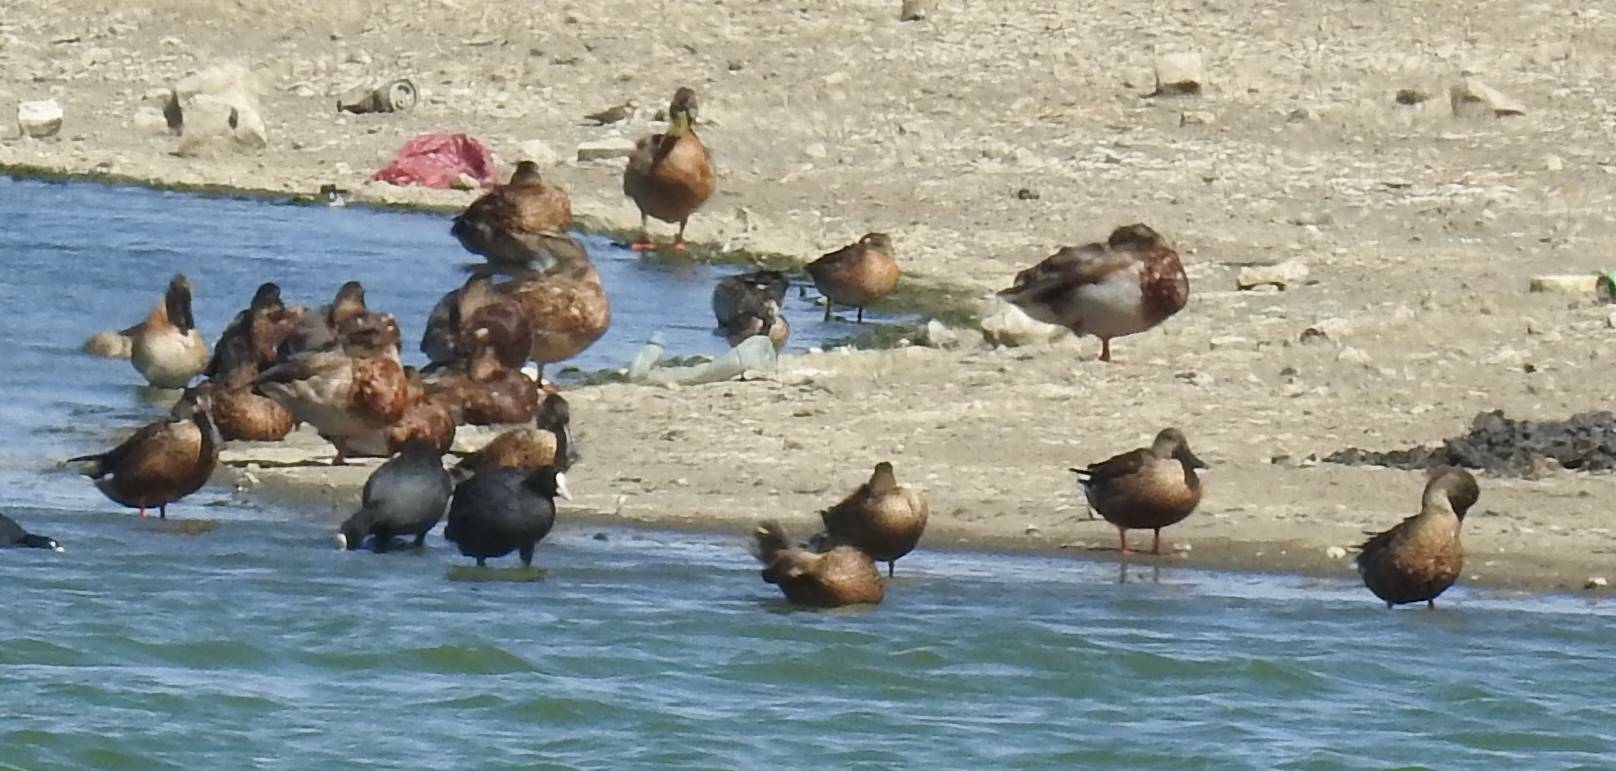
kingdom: Animalia
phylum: Chordata
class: Aves
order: Anseriformes
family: Anatidae
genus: Spatula
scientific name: Spatula clypeata
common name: Northern shoveler
